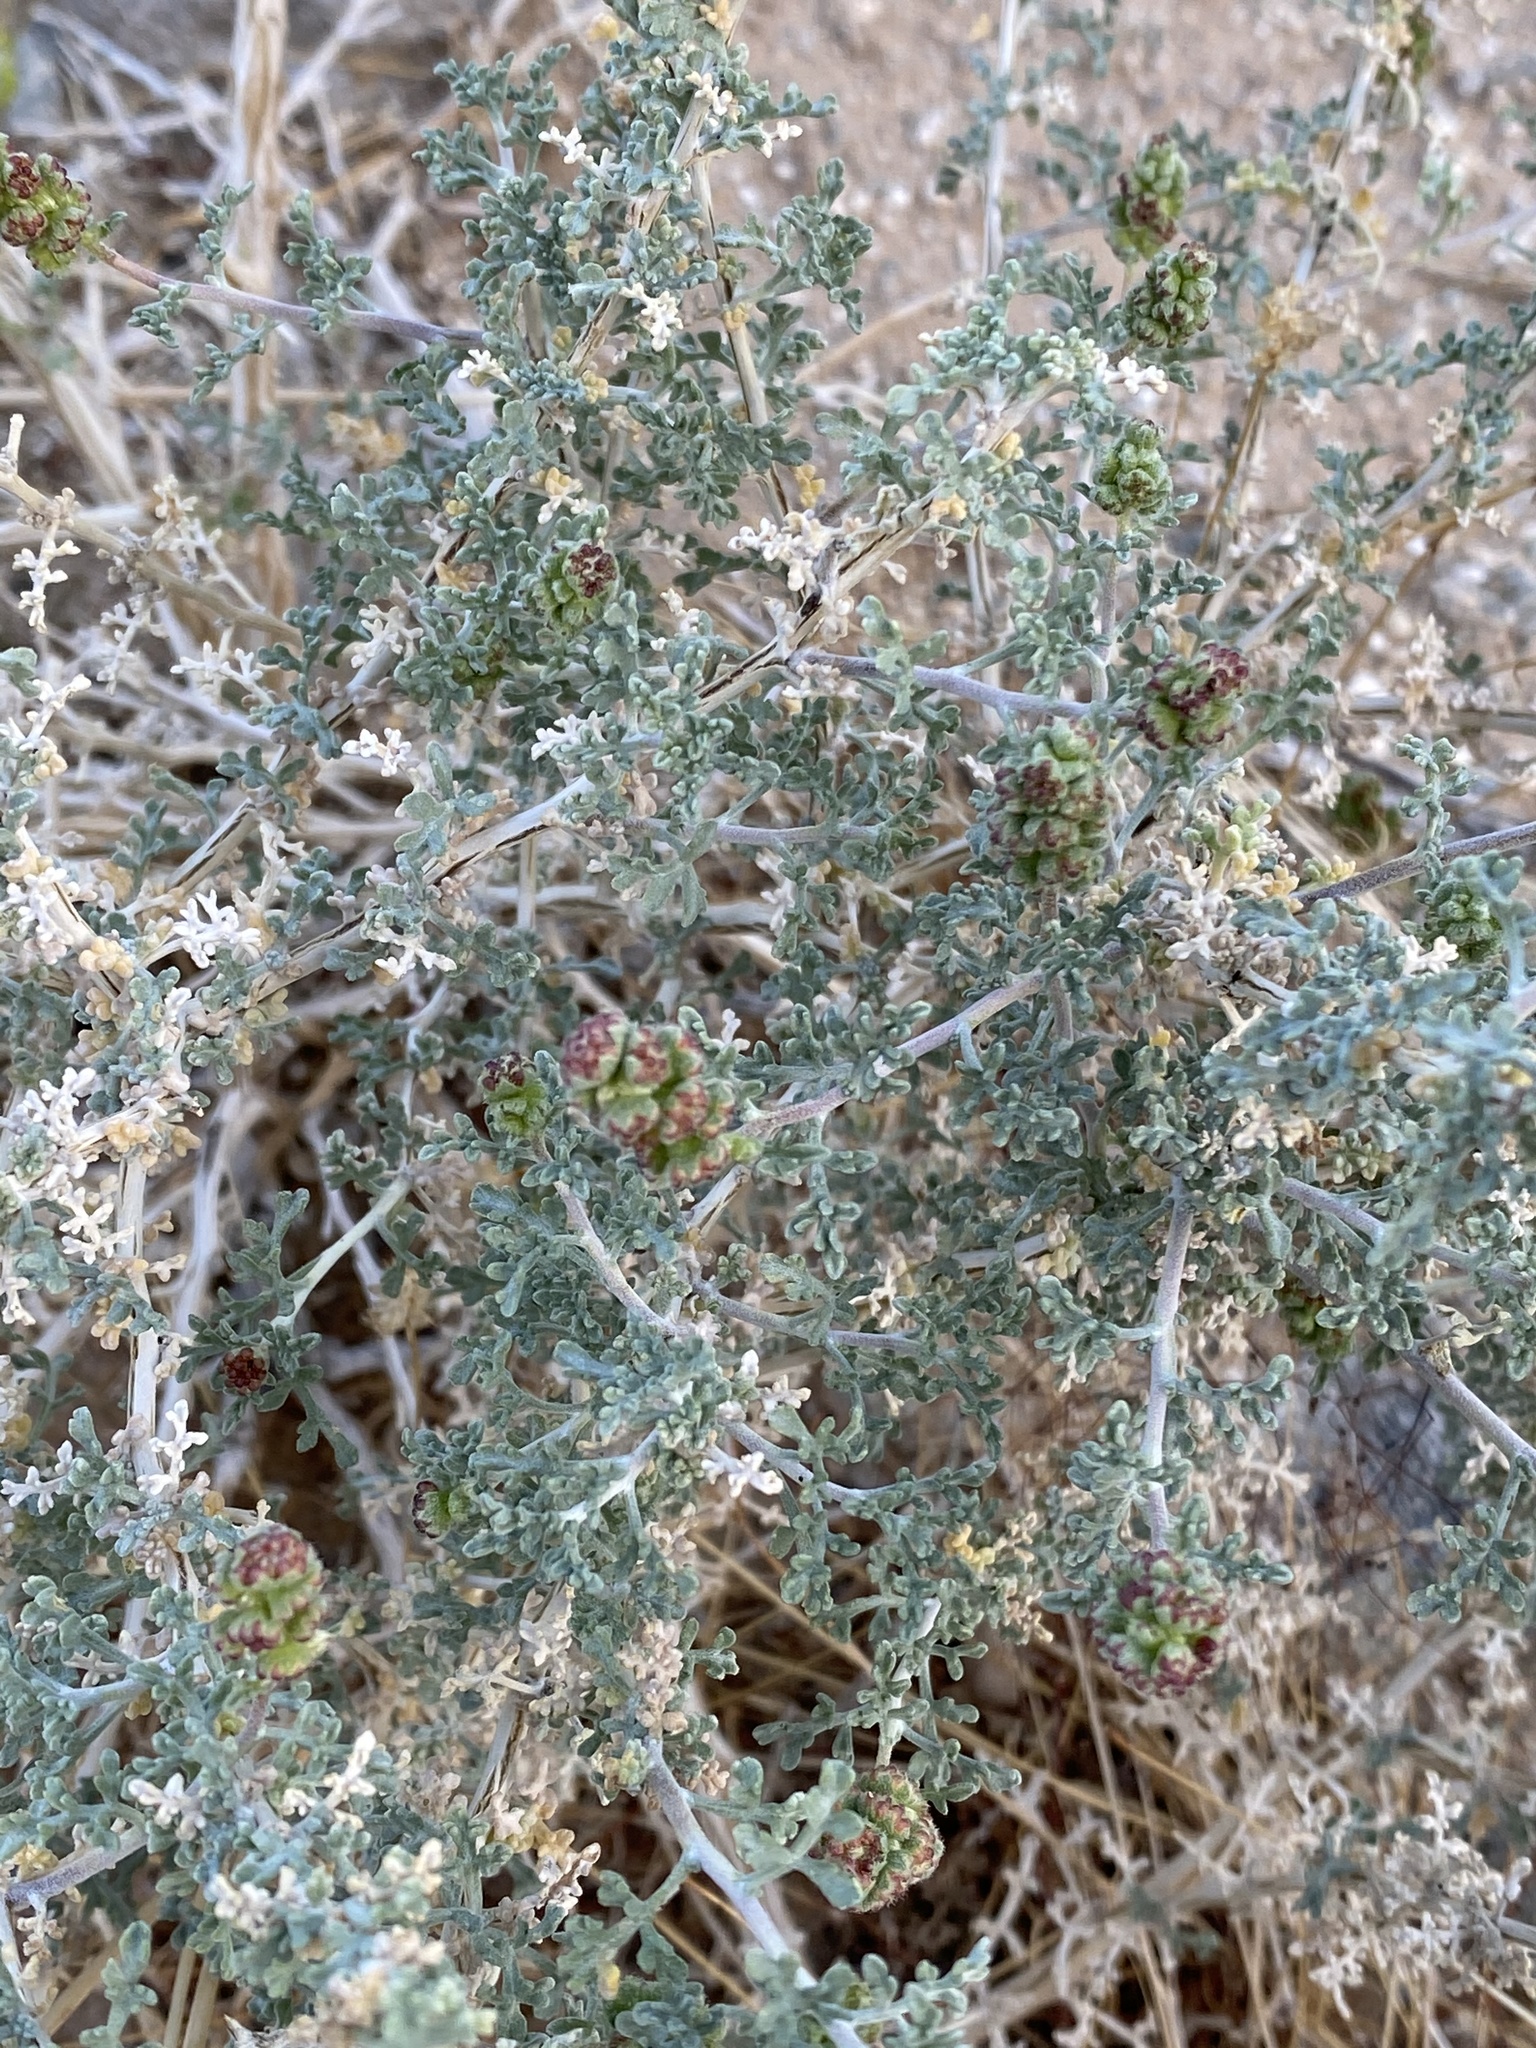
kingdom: Plantae
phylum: Tracheophyta
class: Magnoliopsida
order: Asterales
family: Asteraceae
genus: Ambrosia
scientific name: Ambrosia dumosa
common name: Bur-sage
